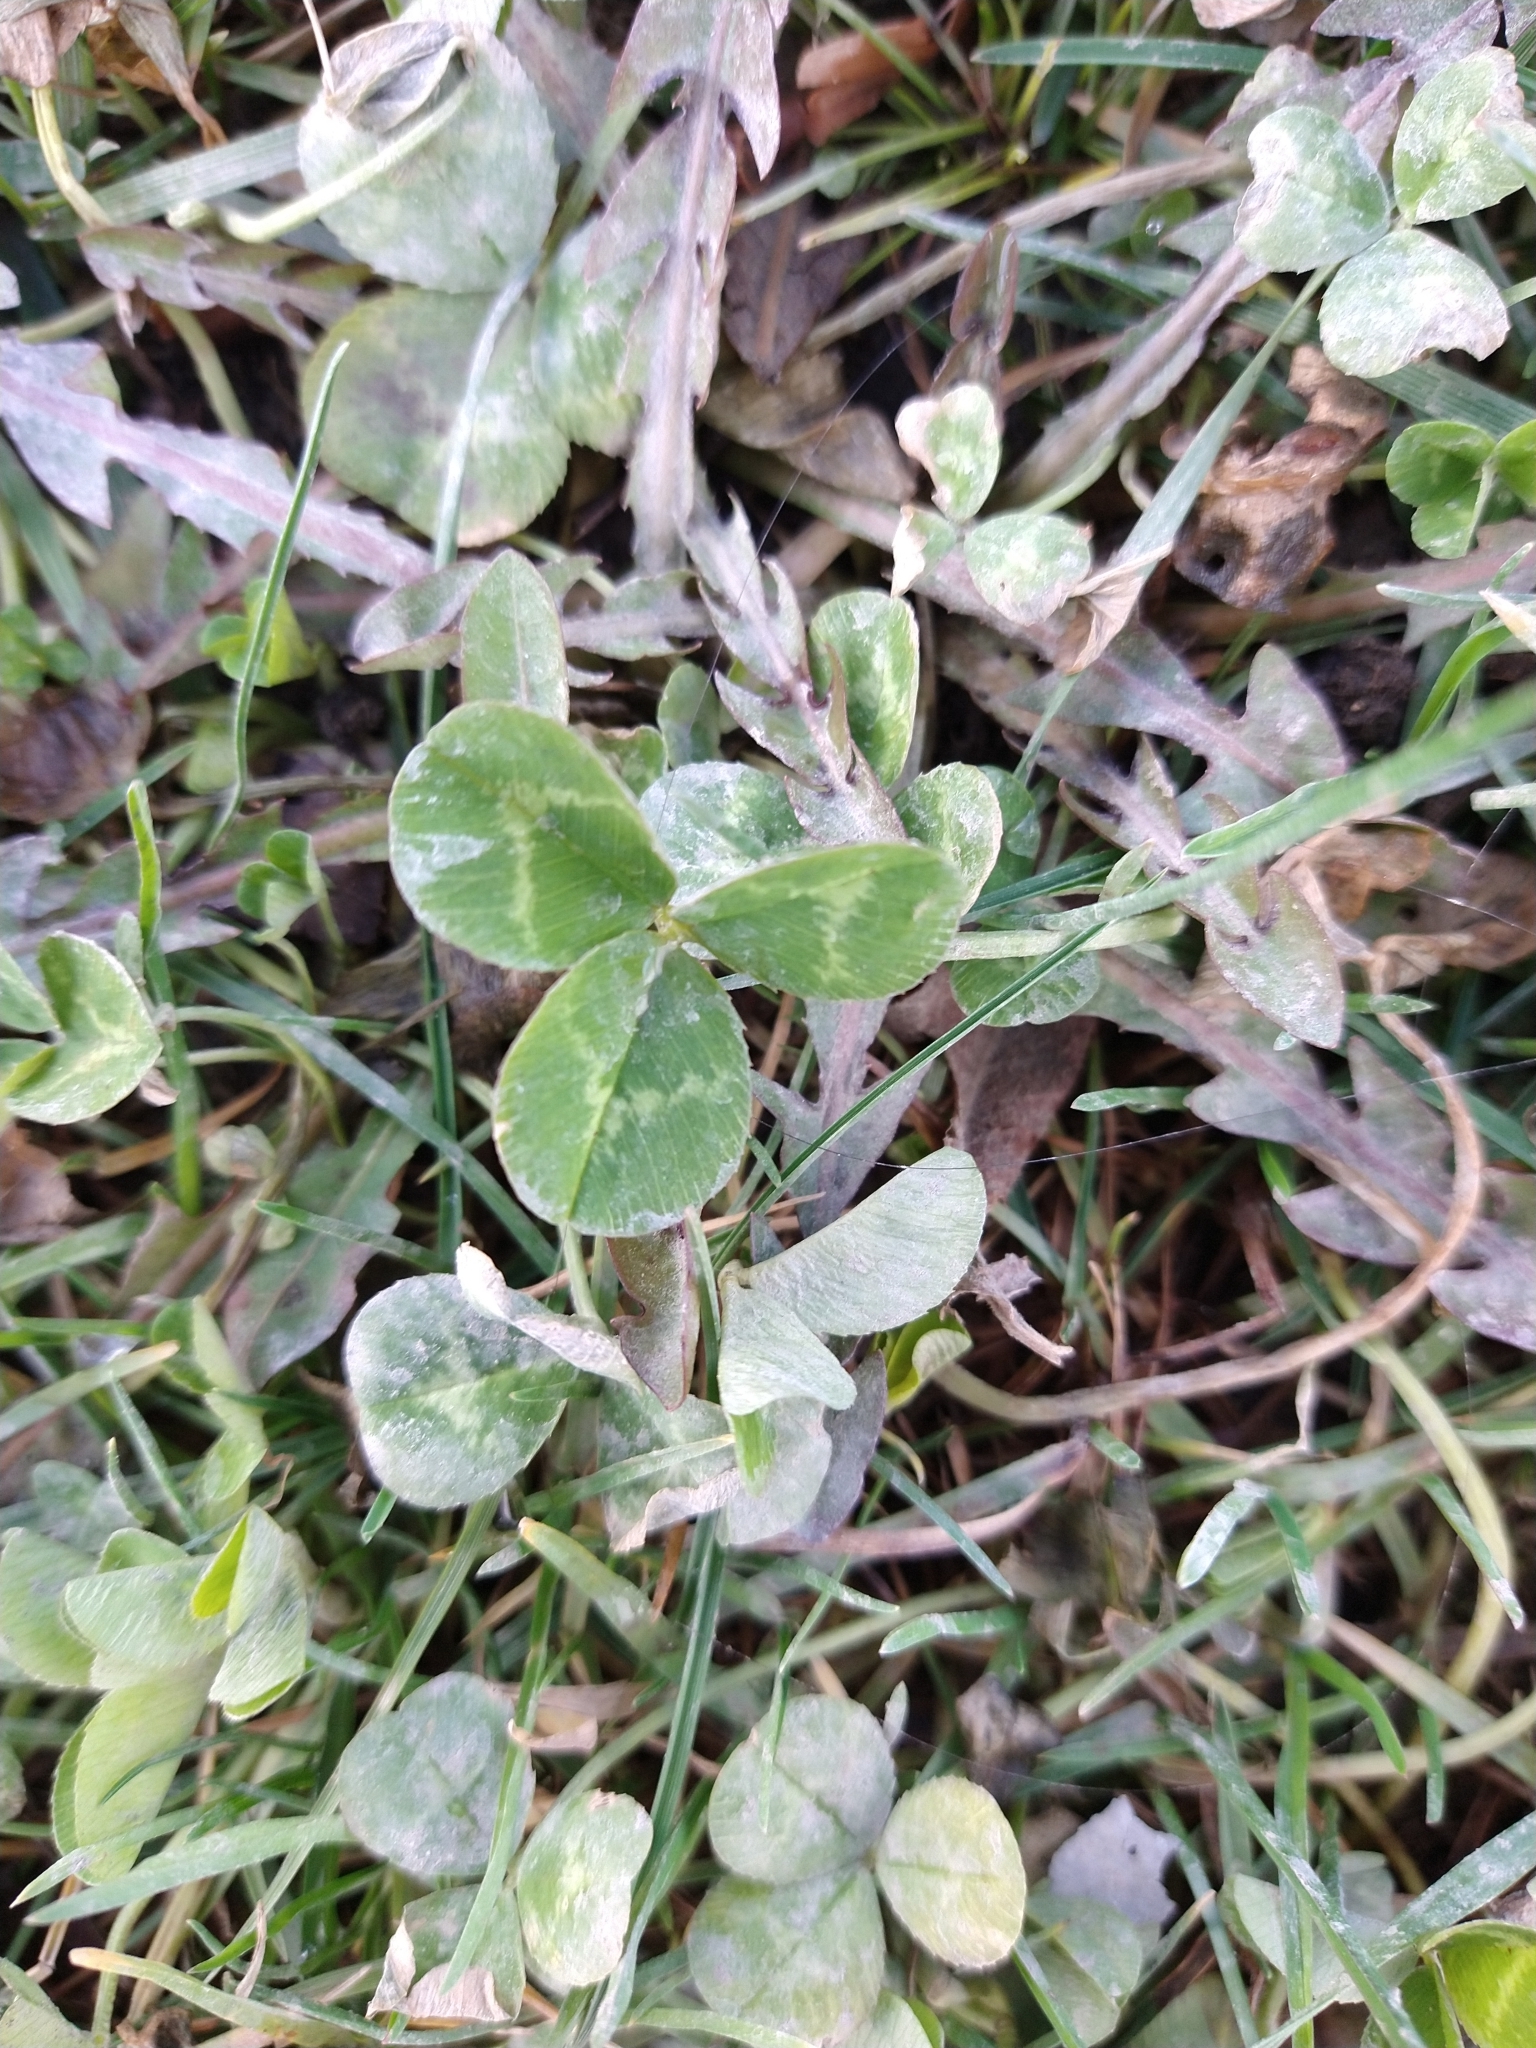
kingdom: Plantae
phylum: Tracheophyta
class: Magnoliopsida
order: Fabales
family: Fabaceae
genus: Trifolium
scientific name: Trifolium repens
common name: White clover
